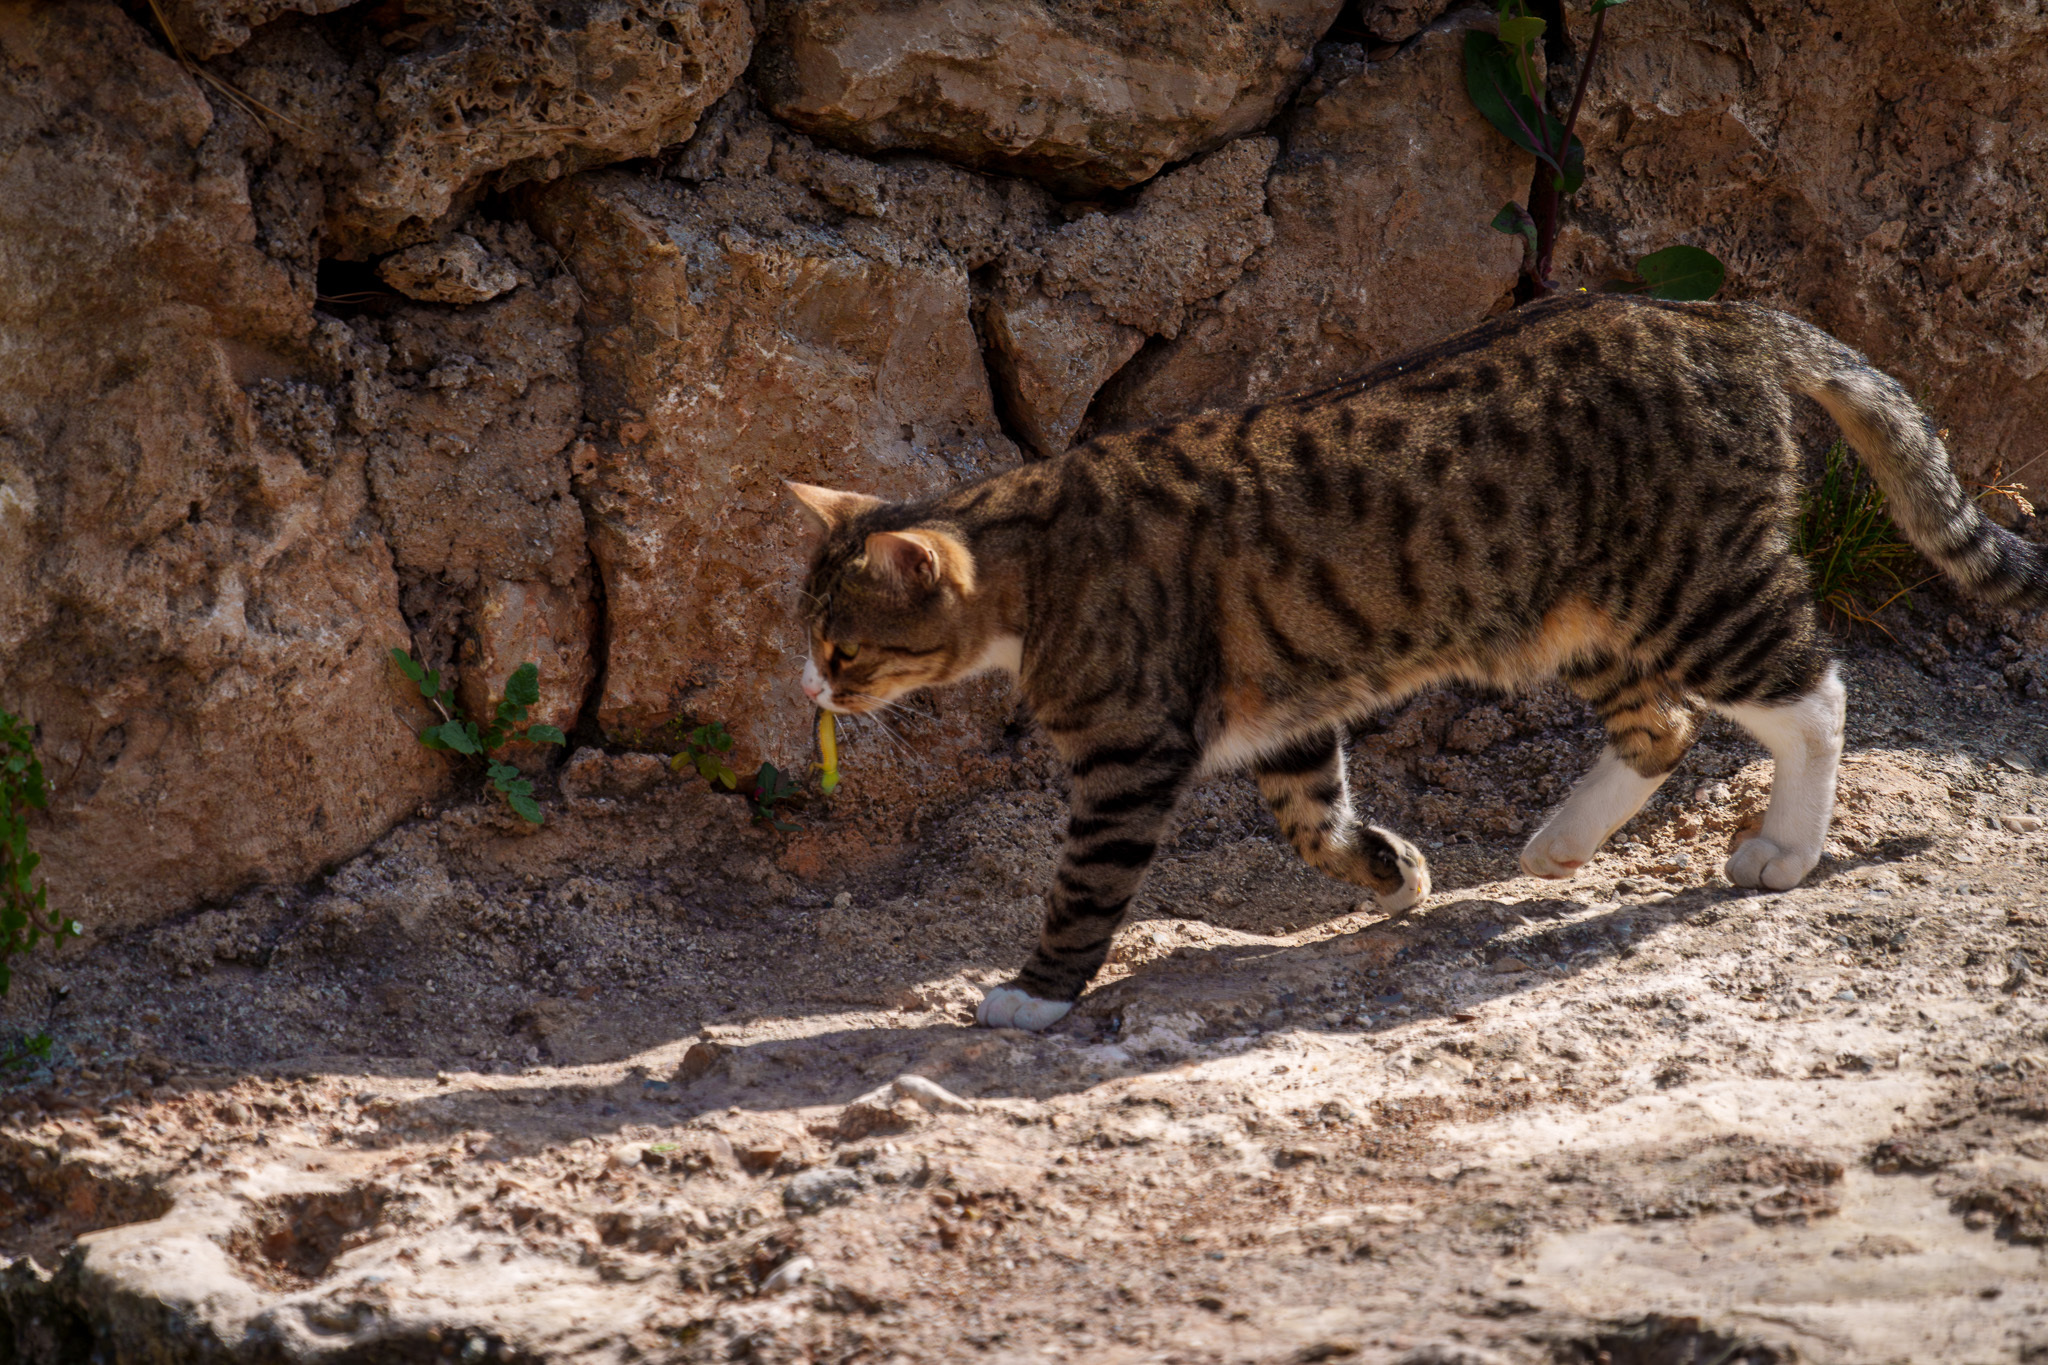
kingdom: Animalia
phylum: Chordata
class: Mammalia
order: Carnivora
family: Felidae
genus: Felis
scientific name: Felis catus
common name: Domestic cat
